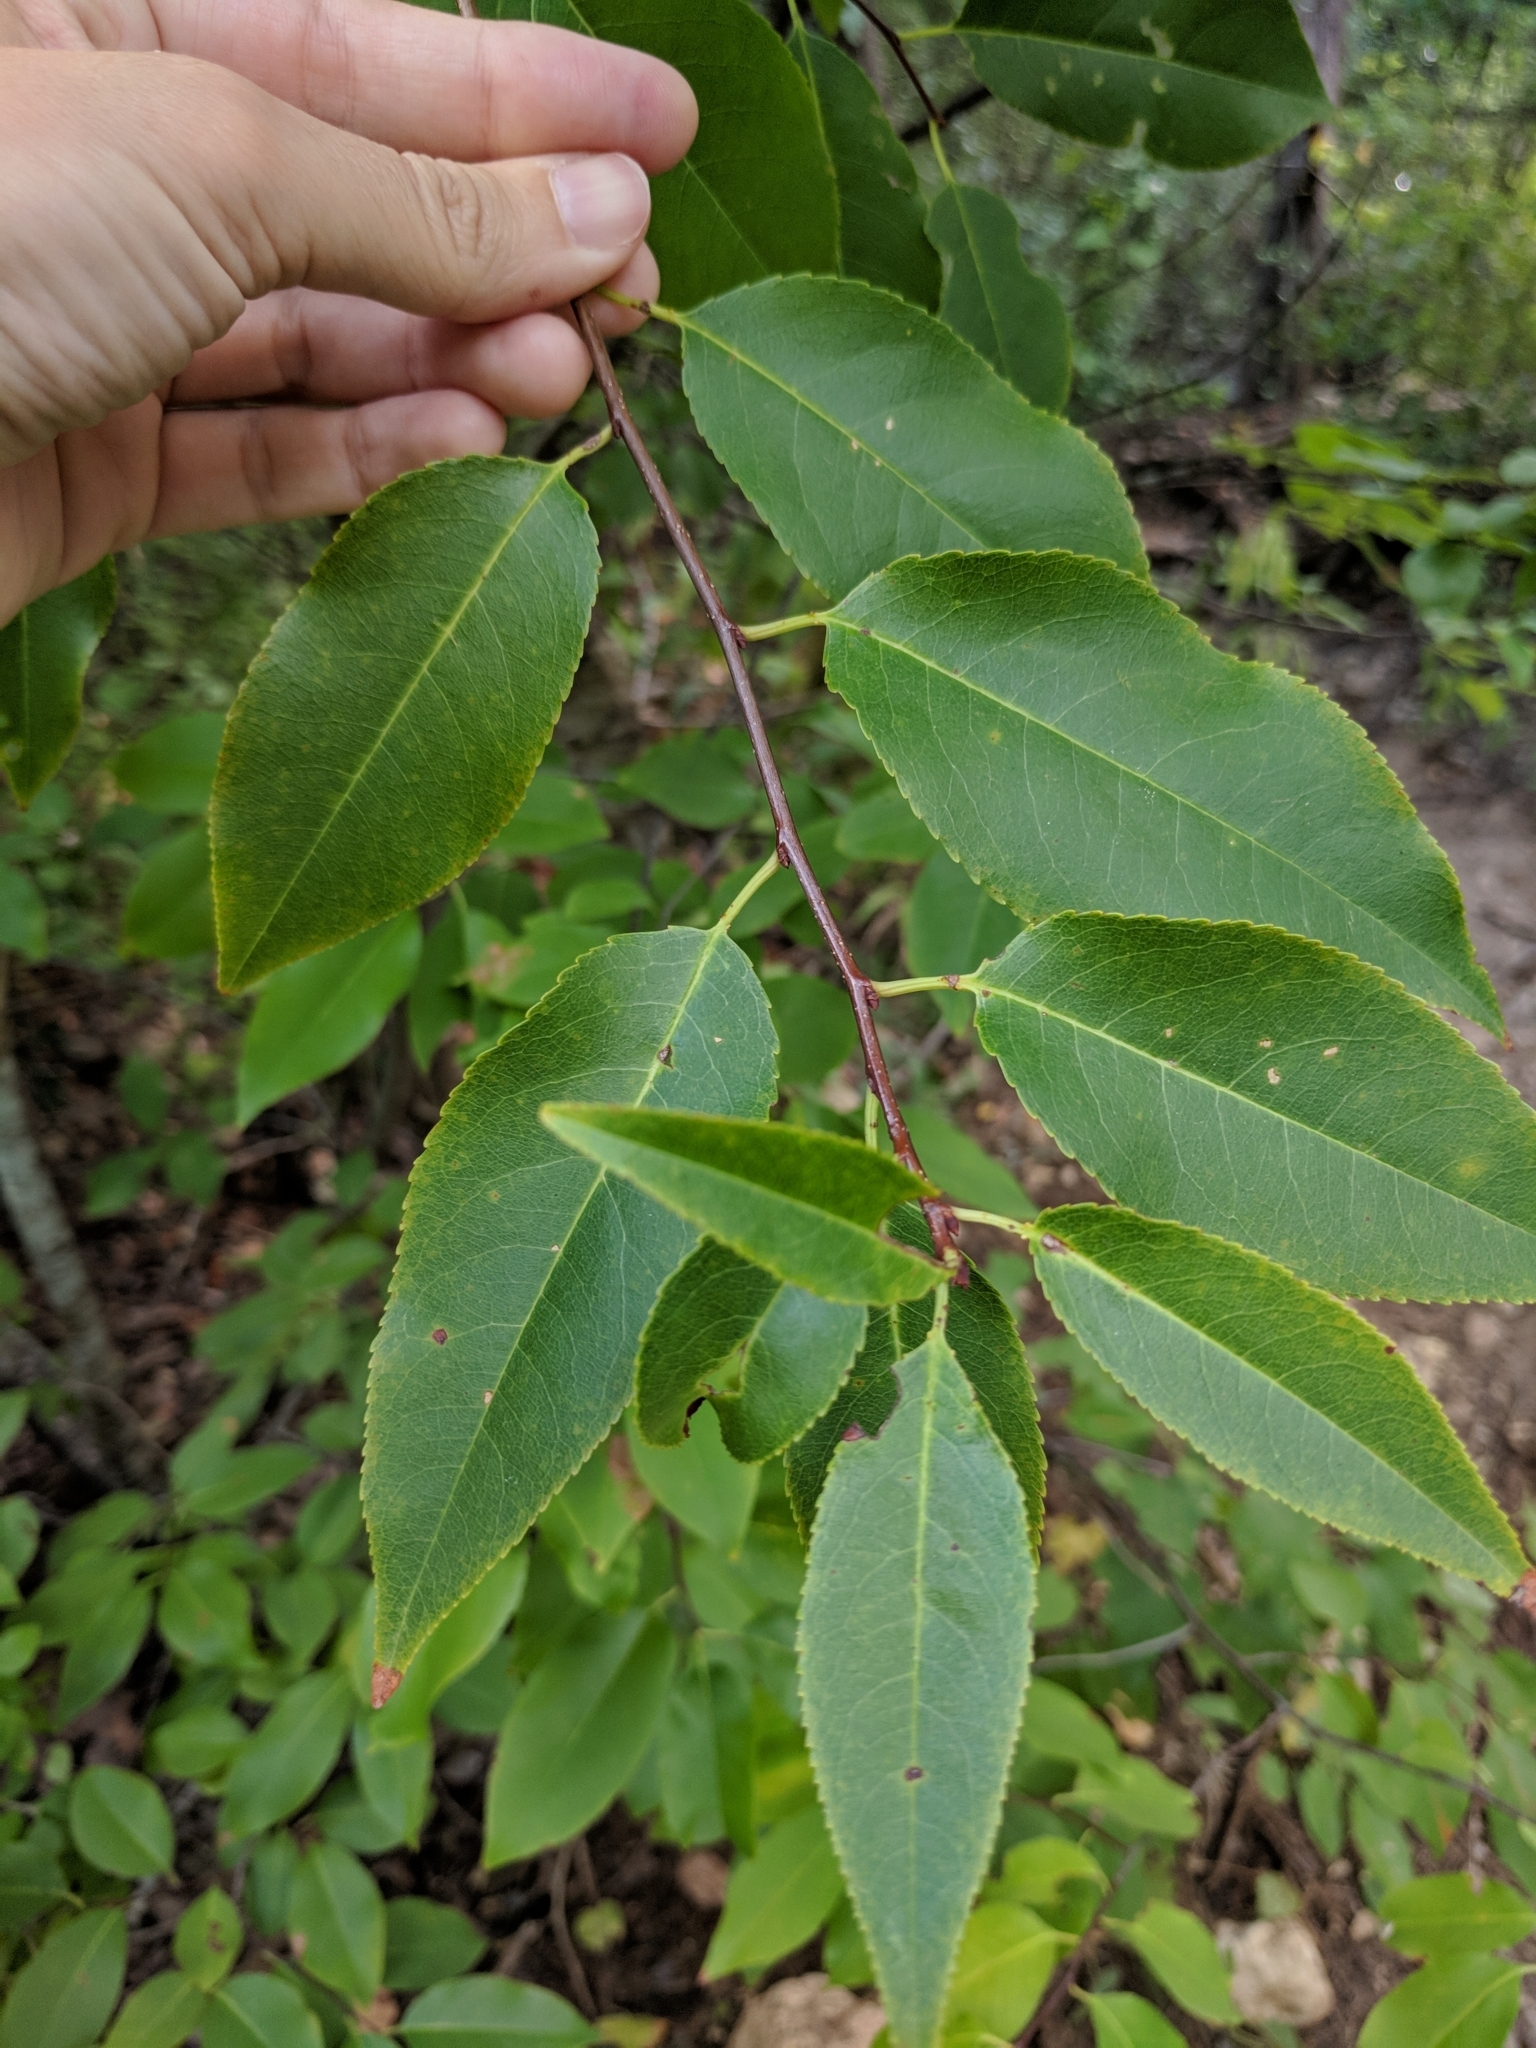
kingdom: Plantae
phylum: Tracheophyta
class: Magnoliopsida
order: Rosales
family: Rosaceae
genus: Prunus
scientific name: Prunus serotina
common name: Black cherry
